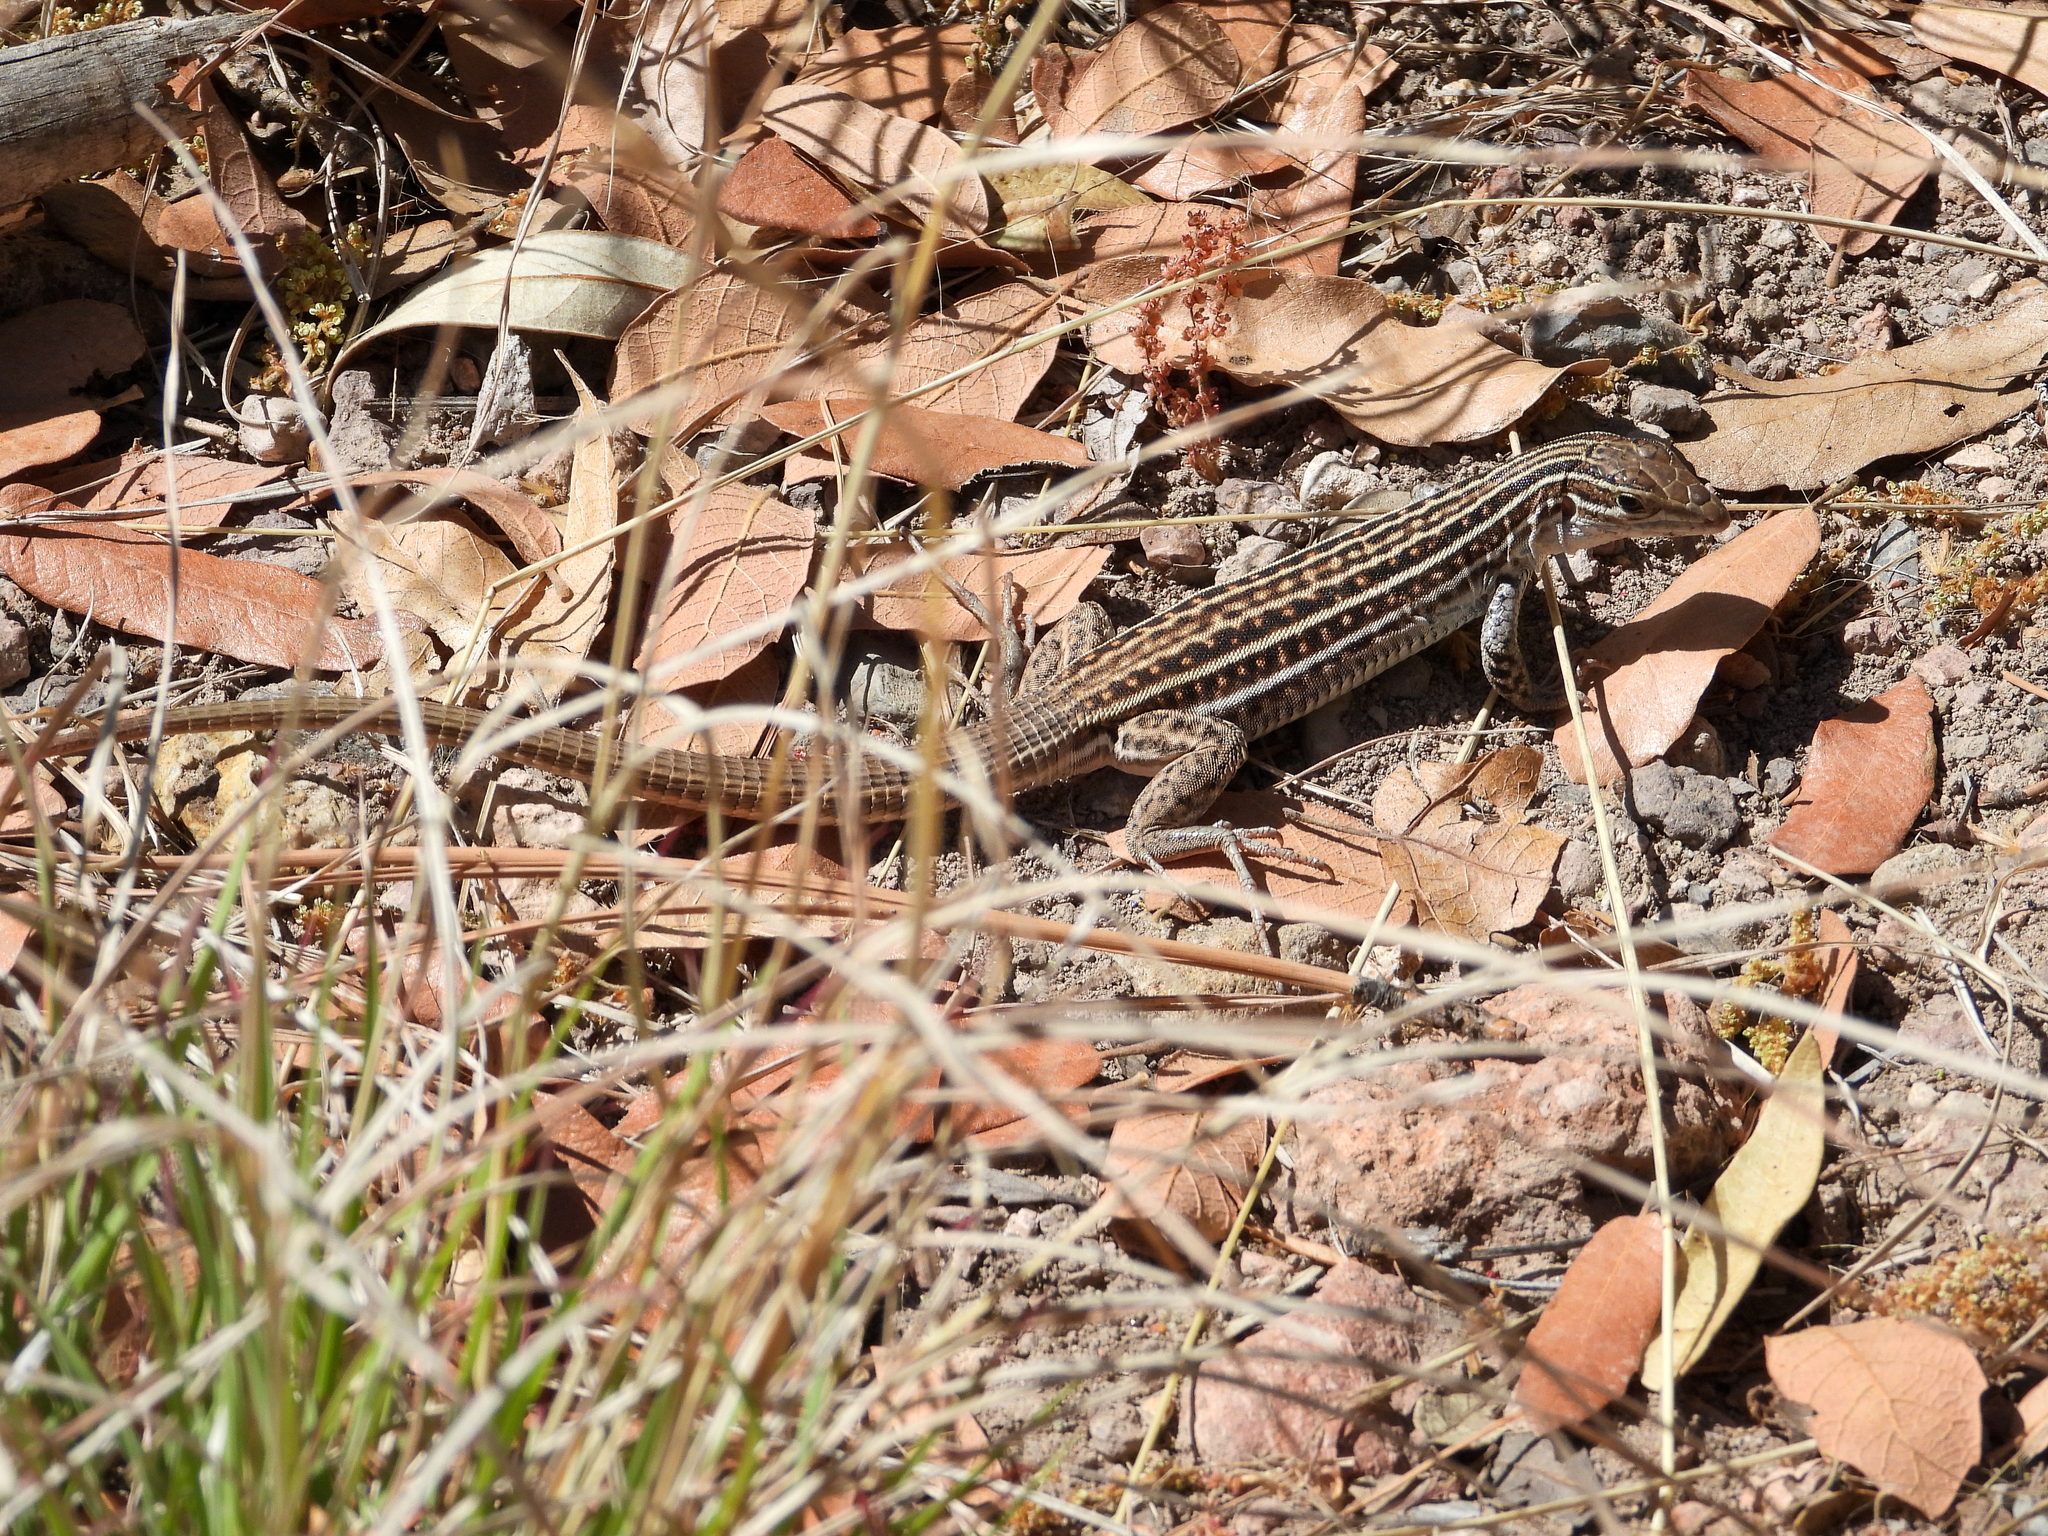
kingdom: Animalia
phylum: Chordata
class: Squamata
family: Teiidae
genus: Aspidoscelis
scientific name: Aspidoscelis exsanguis
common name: Chihuahuan spotted whiptail
